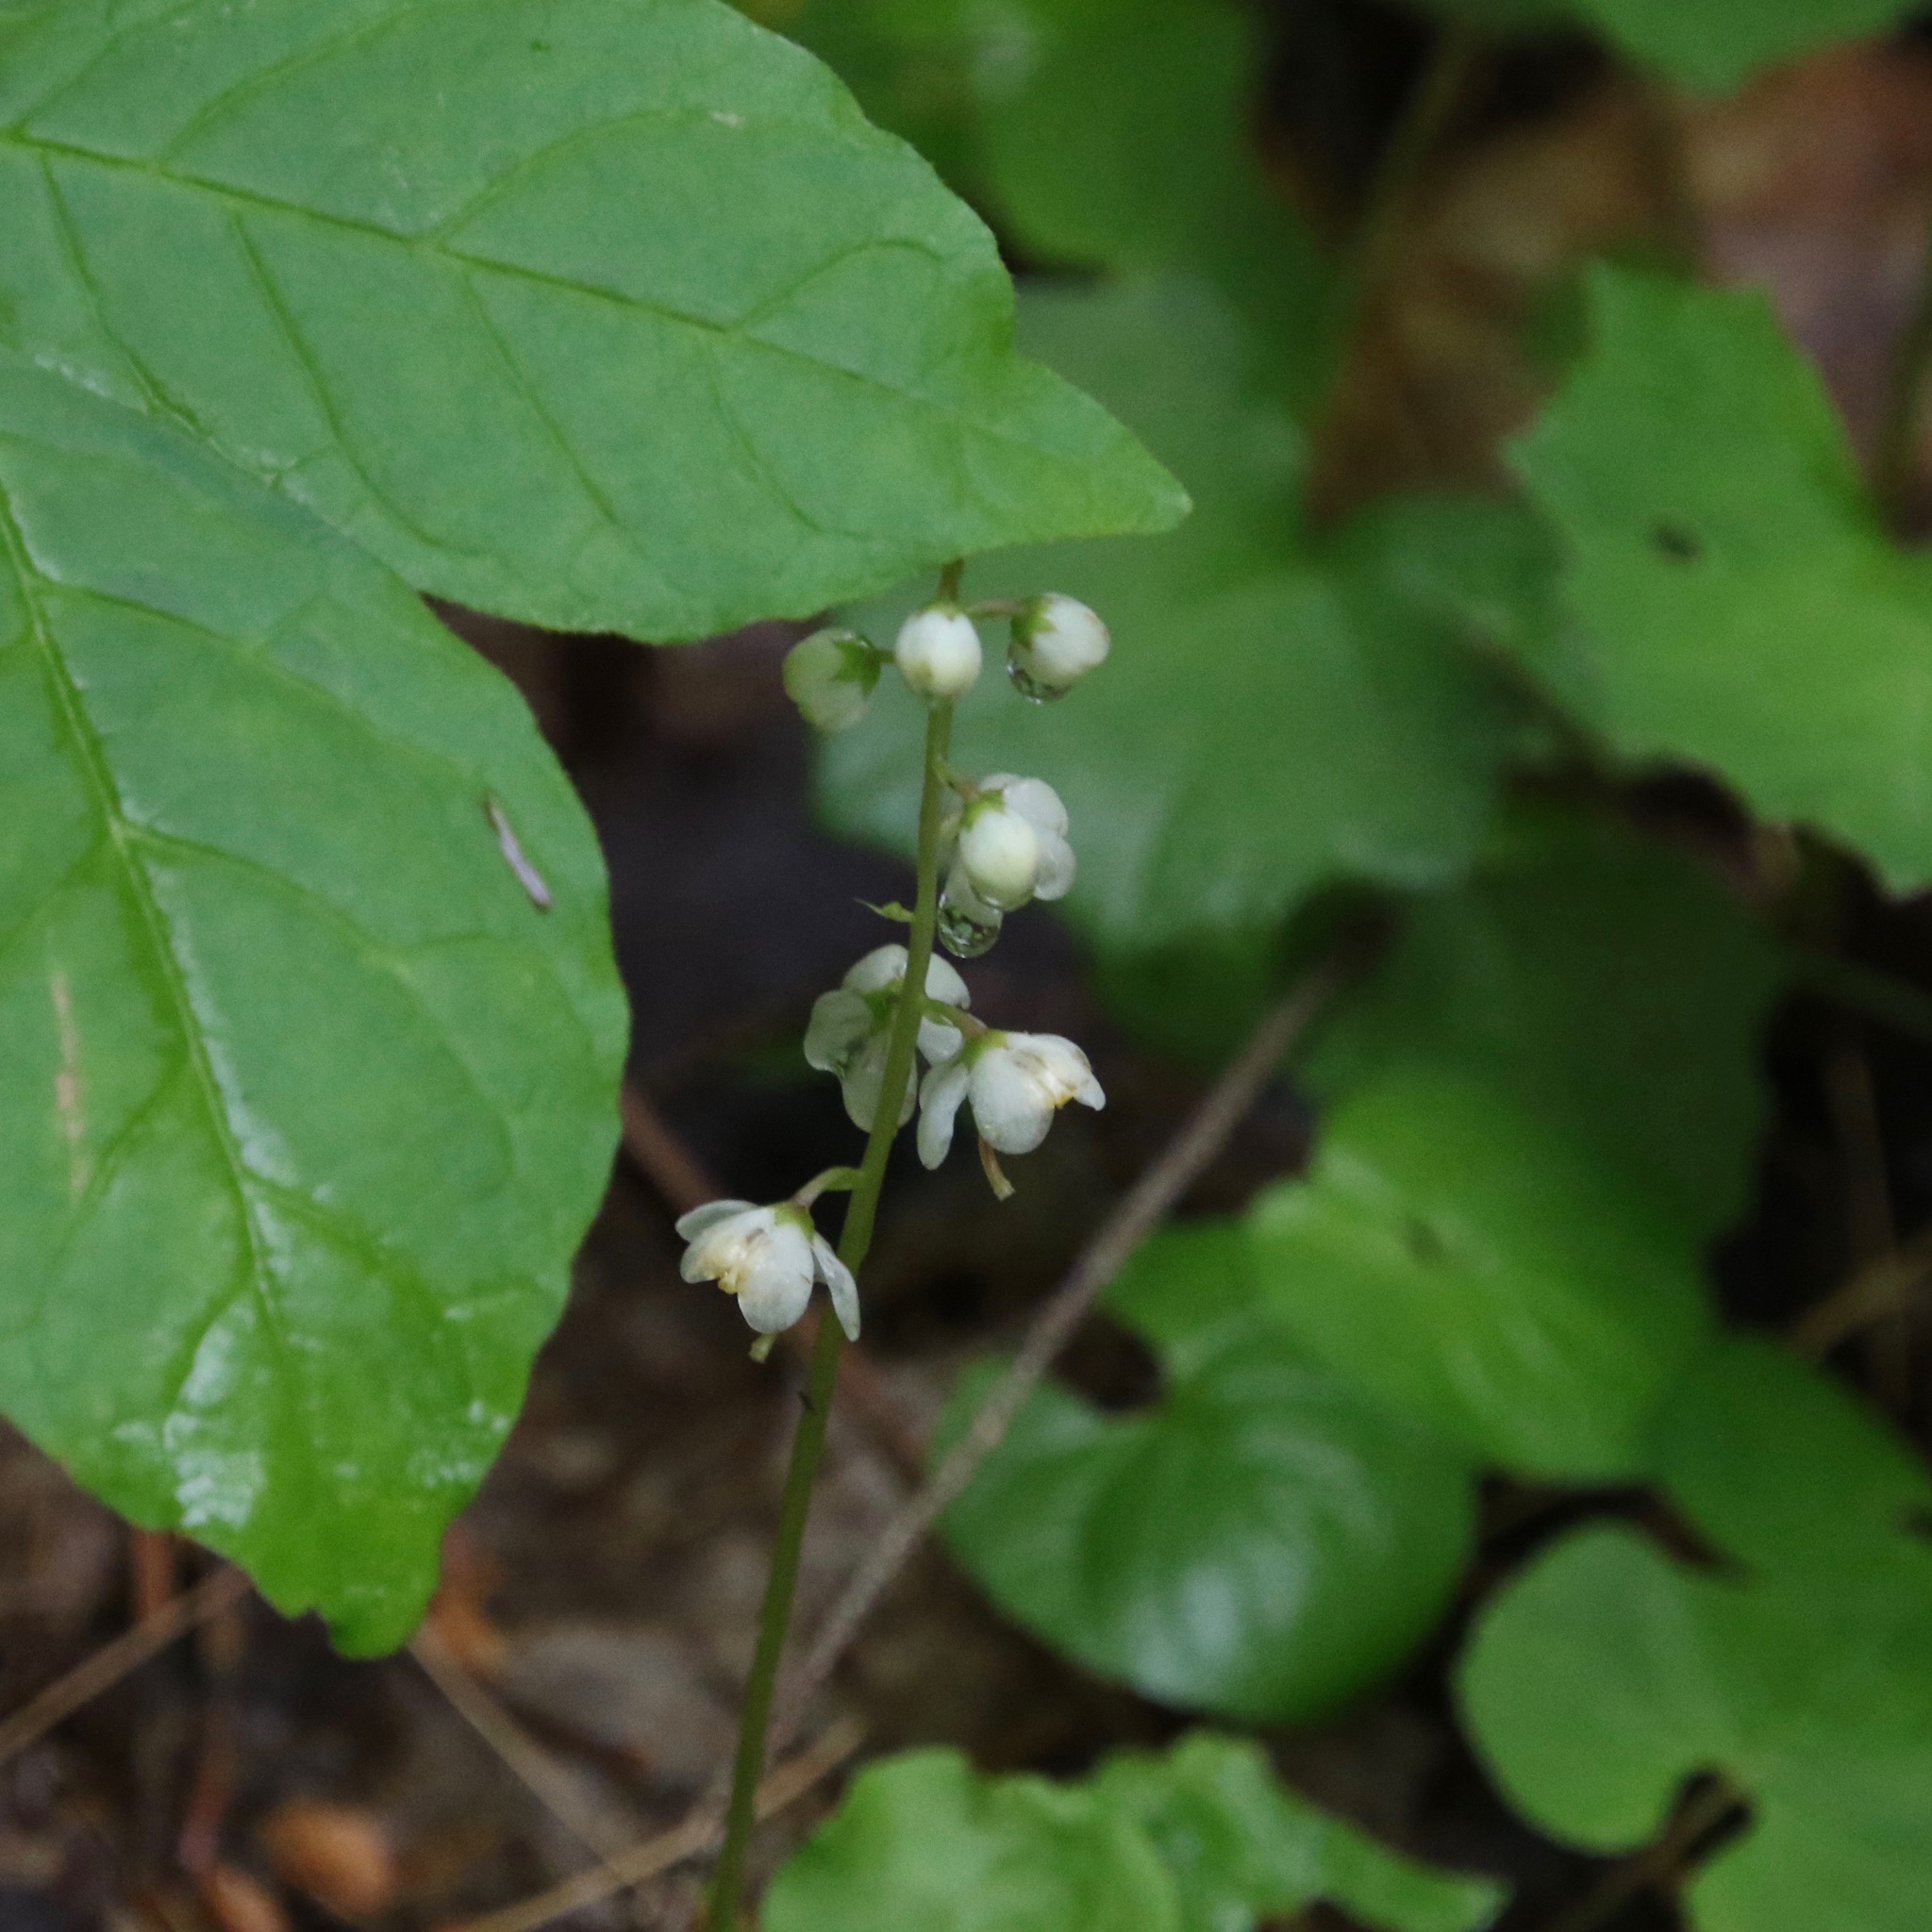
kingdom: Plantae
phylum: Tracheophyta
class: Magnoliopsida
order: Ericales
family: Ericaceae
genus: Pyrola
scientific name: Pyrola elliptica
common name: Shinleaf
